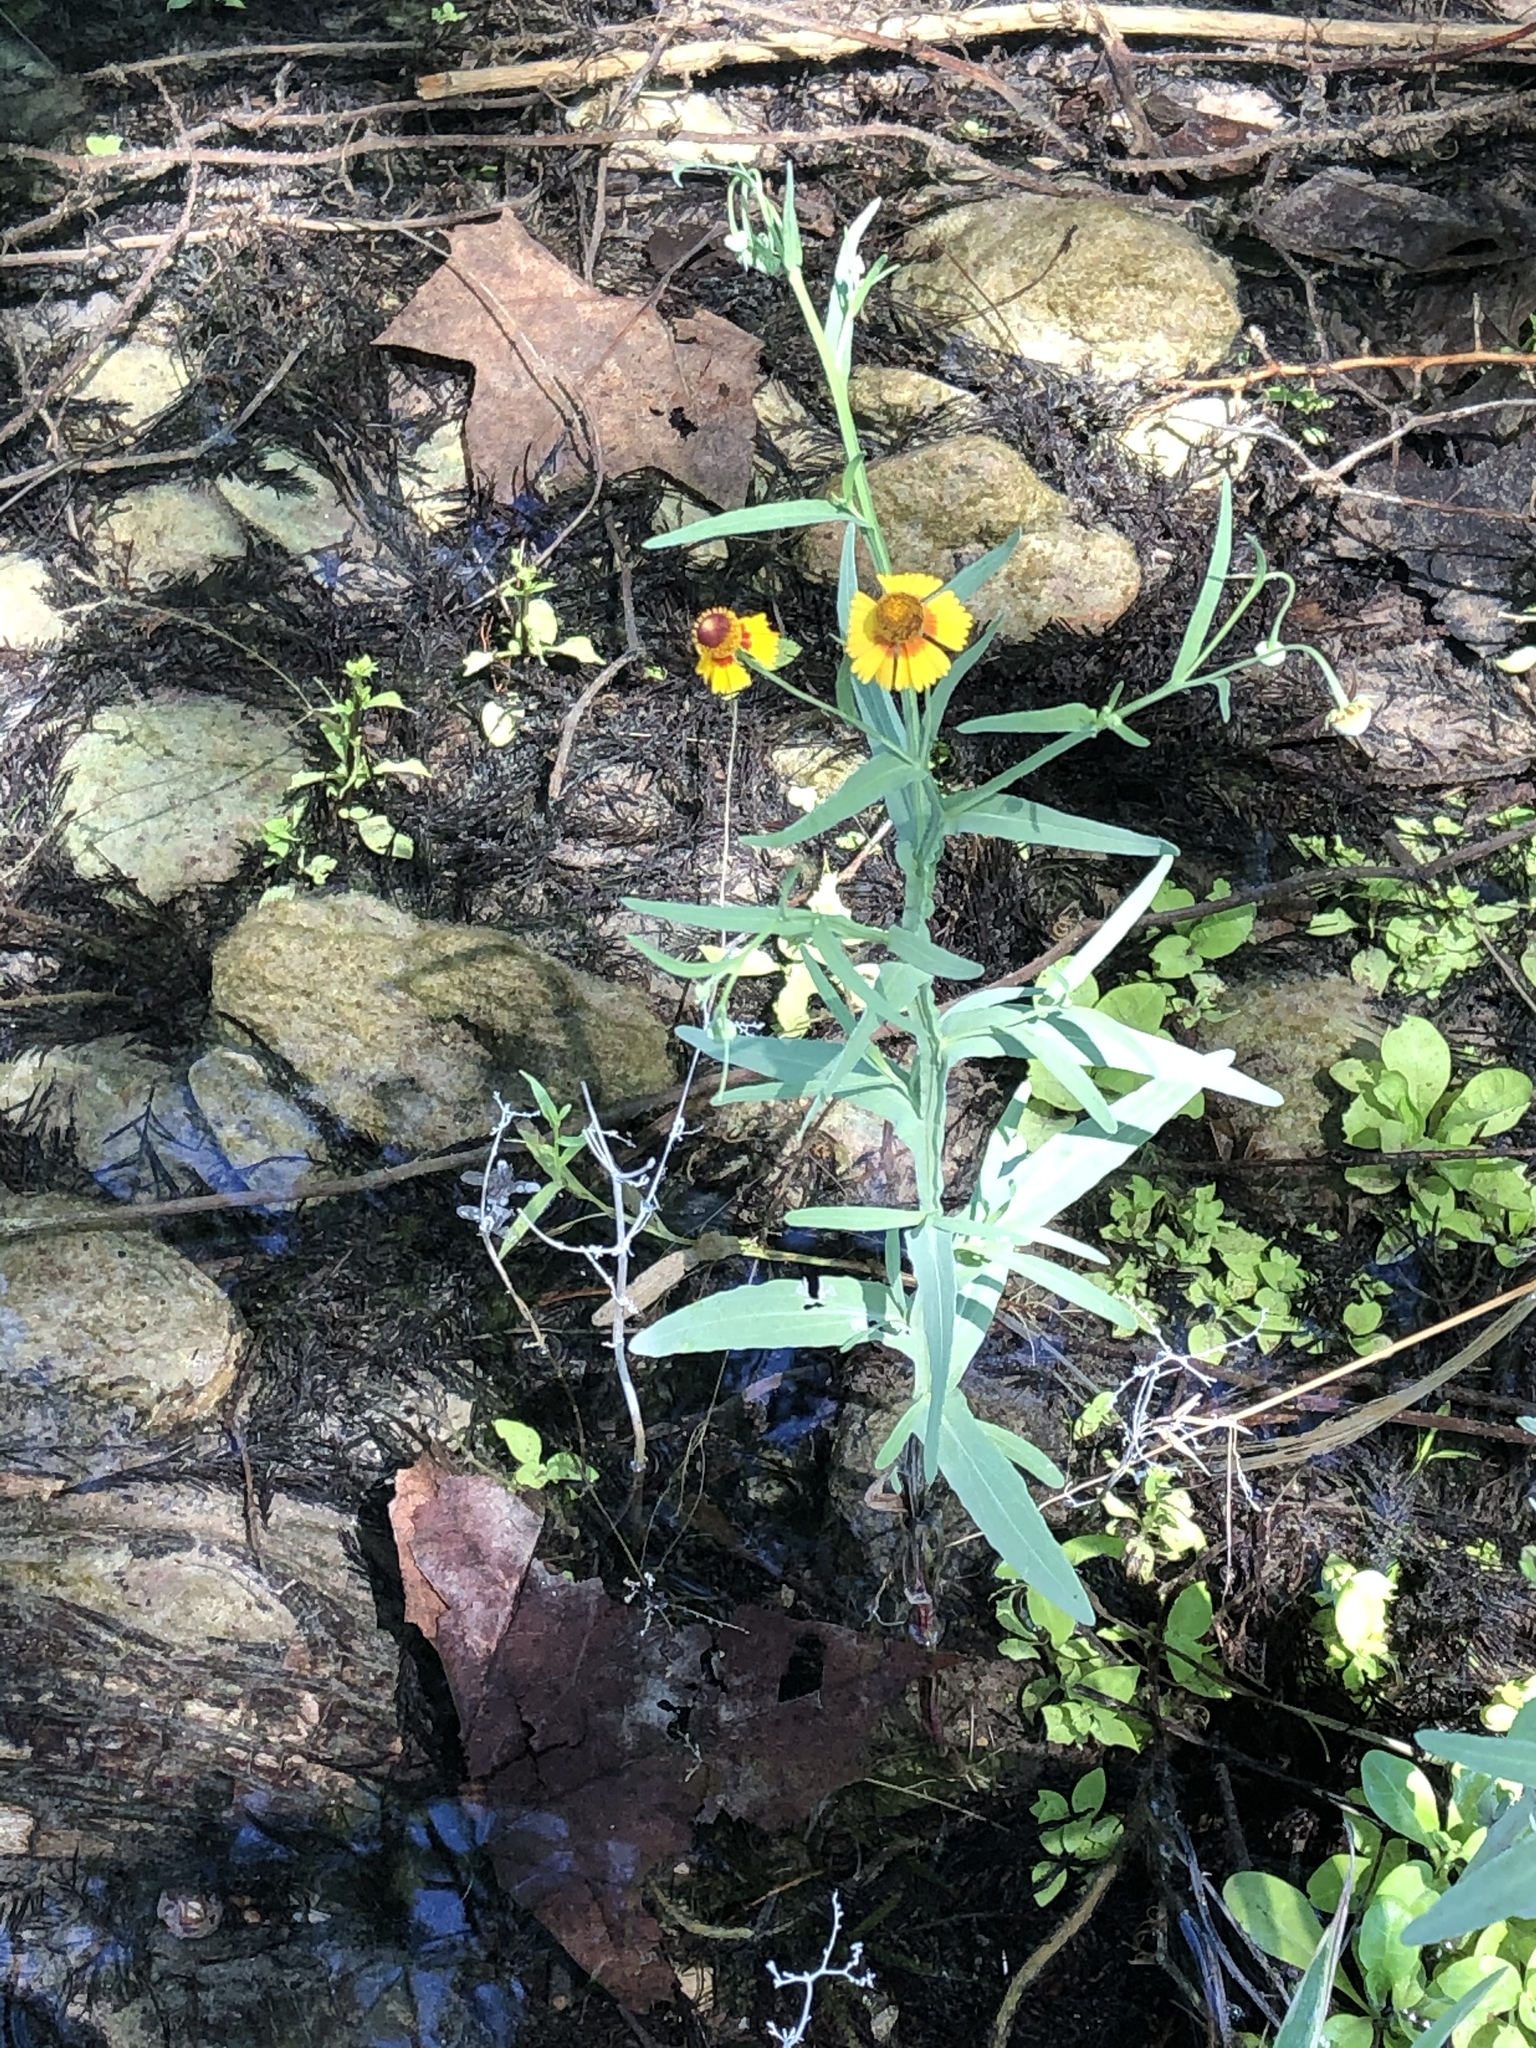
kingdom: Plantae
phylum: Tracheophyta
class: Magnoliopsida
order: Asterales
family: Asteraceae
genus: Helenium
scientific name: Helenium elegans
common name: Pretty sneezeweed
